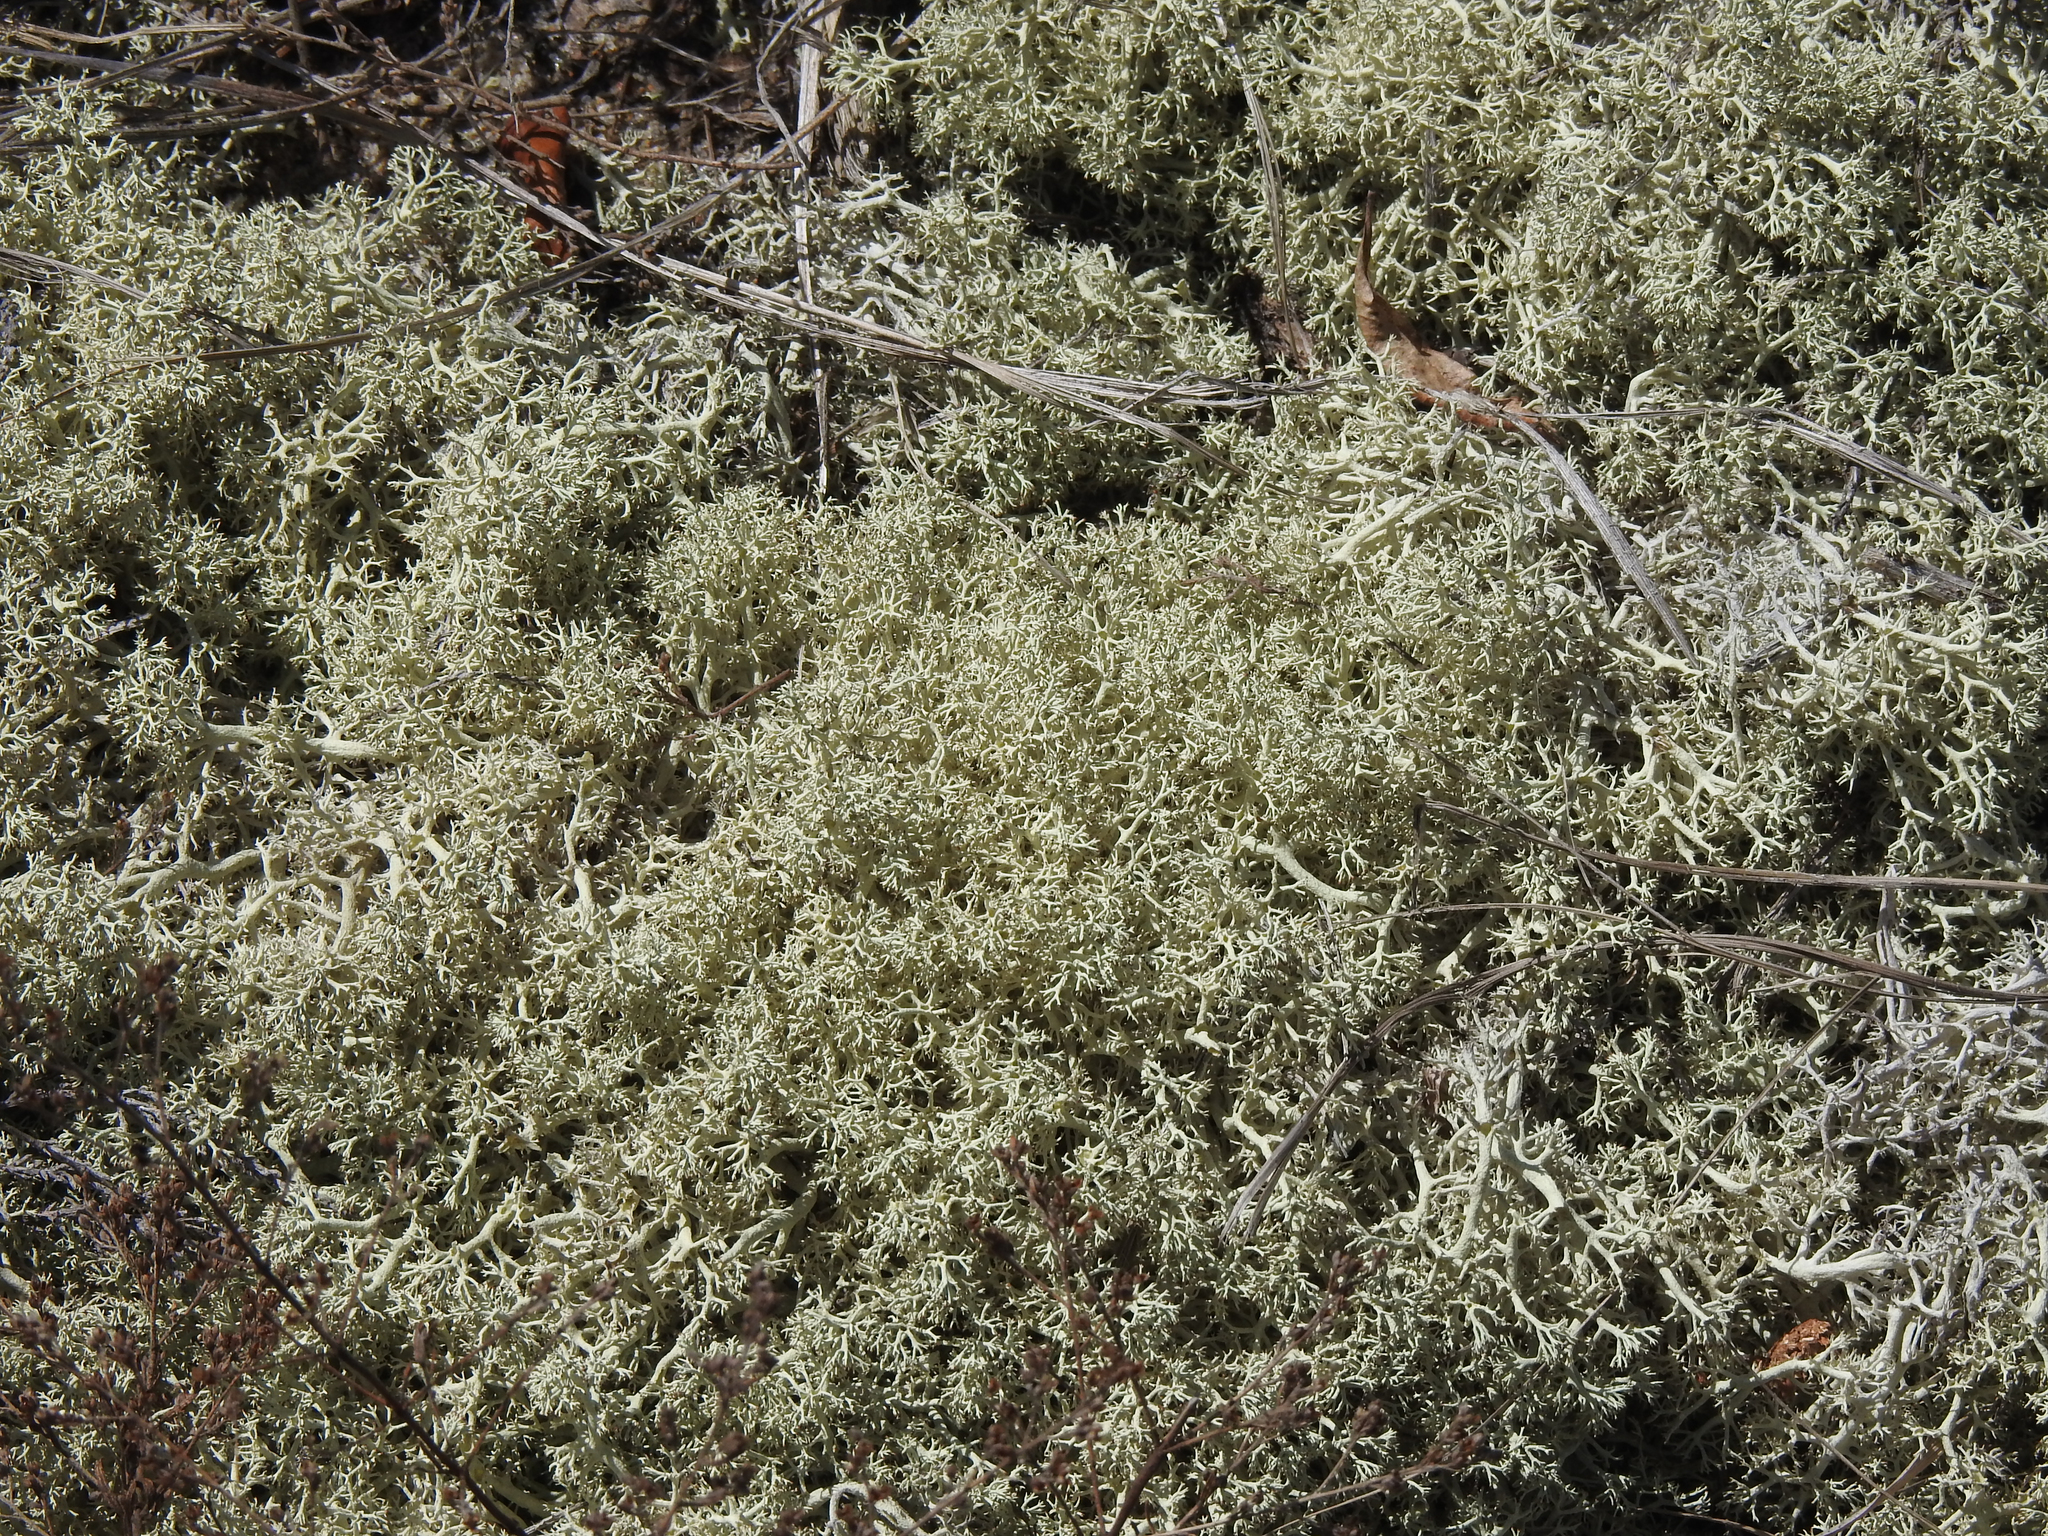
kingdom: Fungi
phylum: Ascomycota
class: Lecanoromycetes
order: Lecanorales
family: Cladoniaceae
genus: Cladonia
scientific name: Cladonia arbuscula
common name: Reindeer lichen
